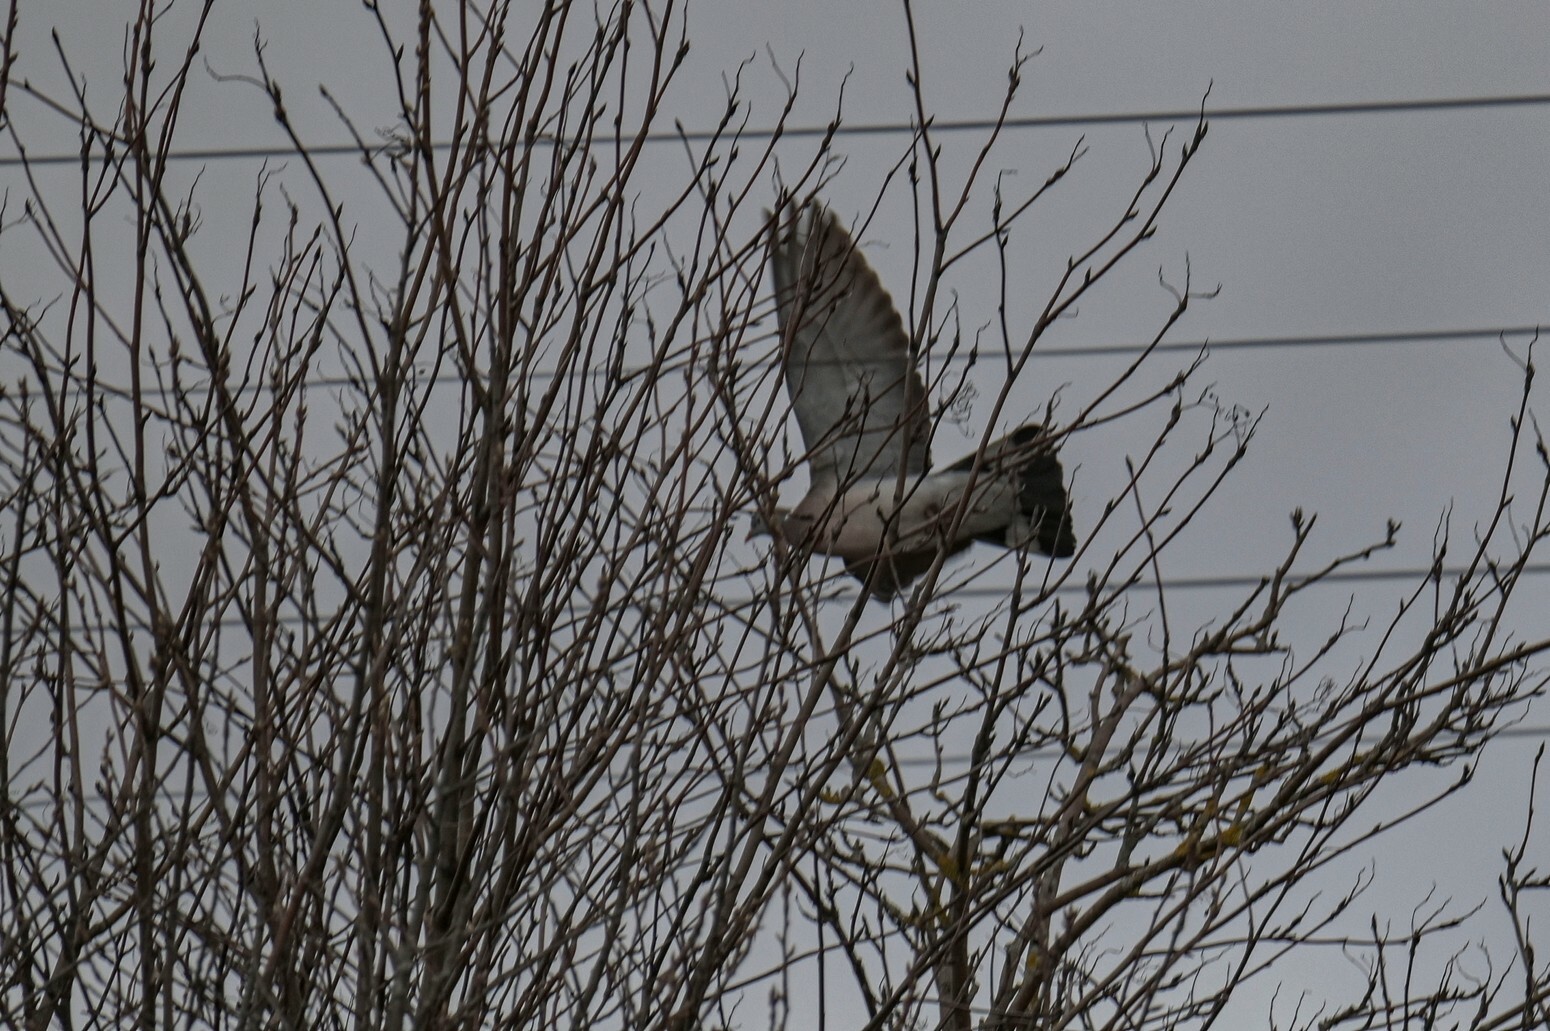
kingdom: Animalia
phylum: Chordata
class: Aves
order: Columbiformes
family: Columbidae
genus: Columba
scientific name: Columba palumbus
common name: Common wood pigeon
